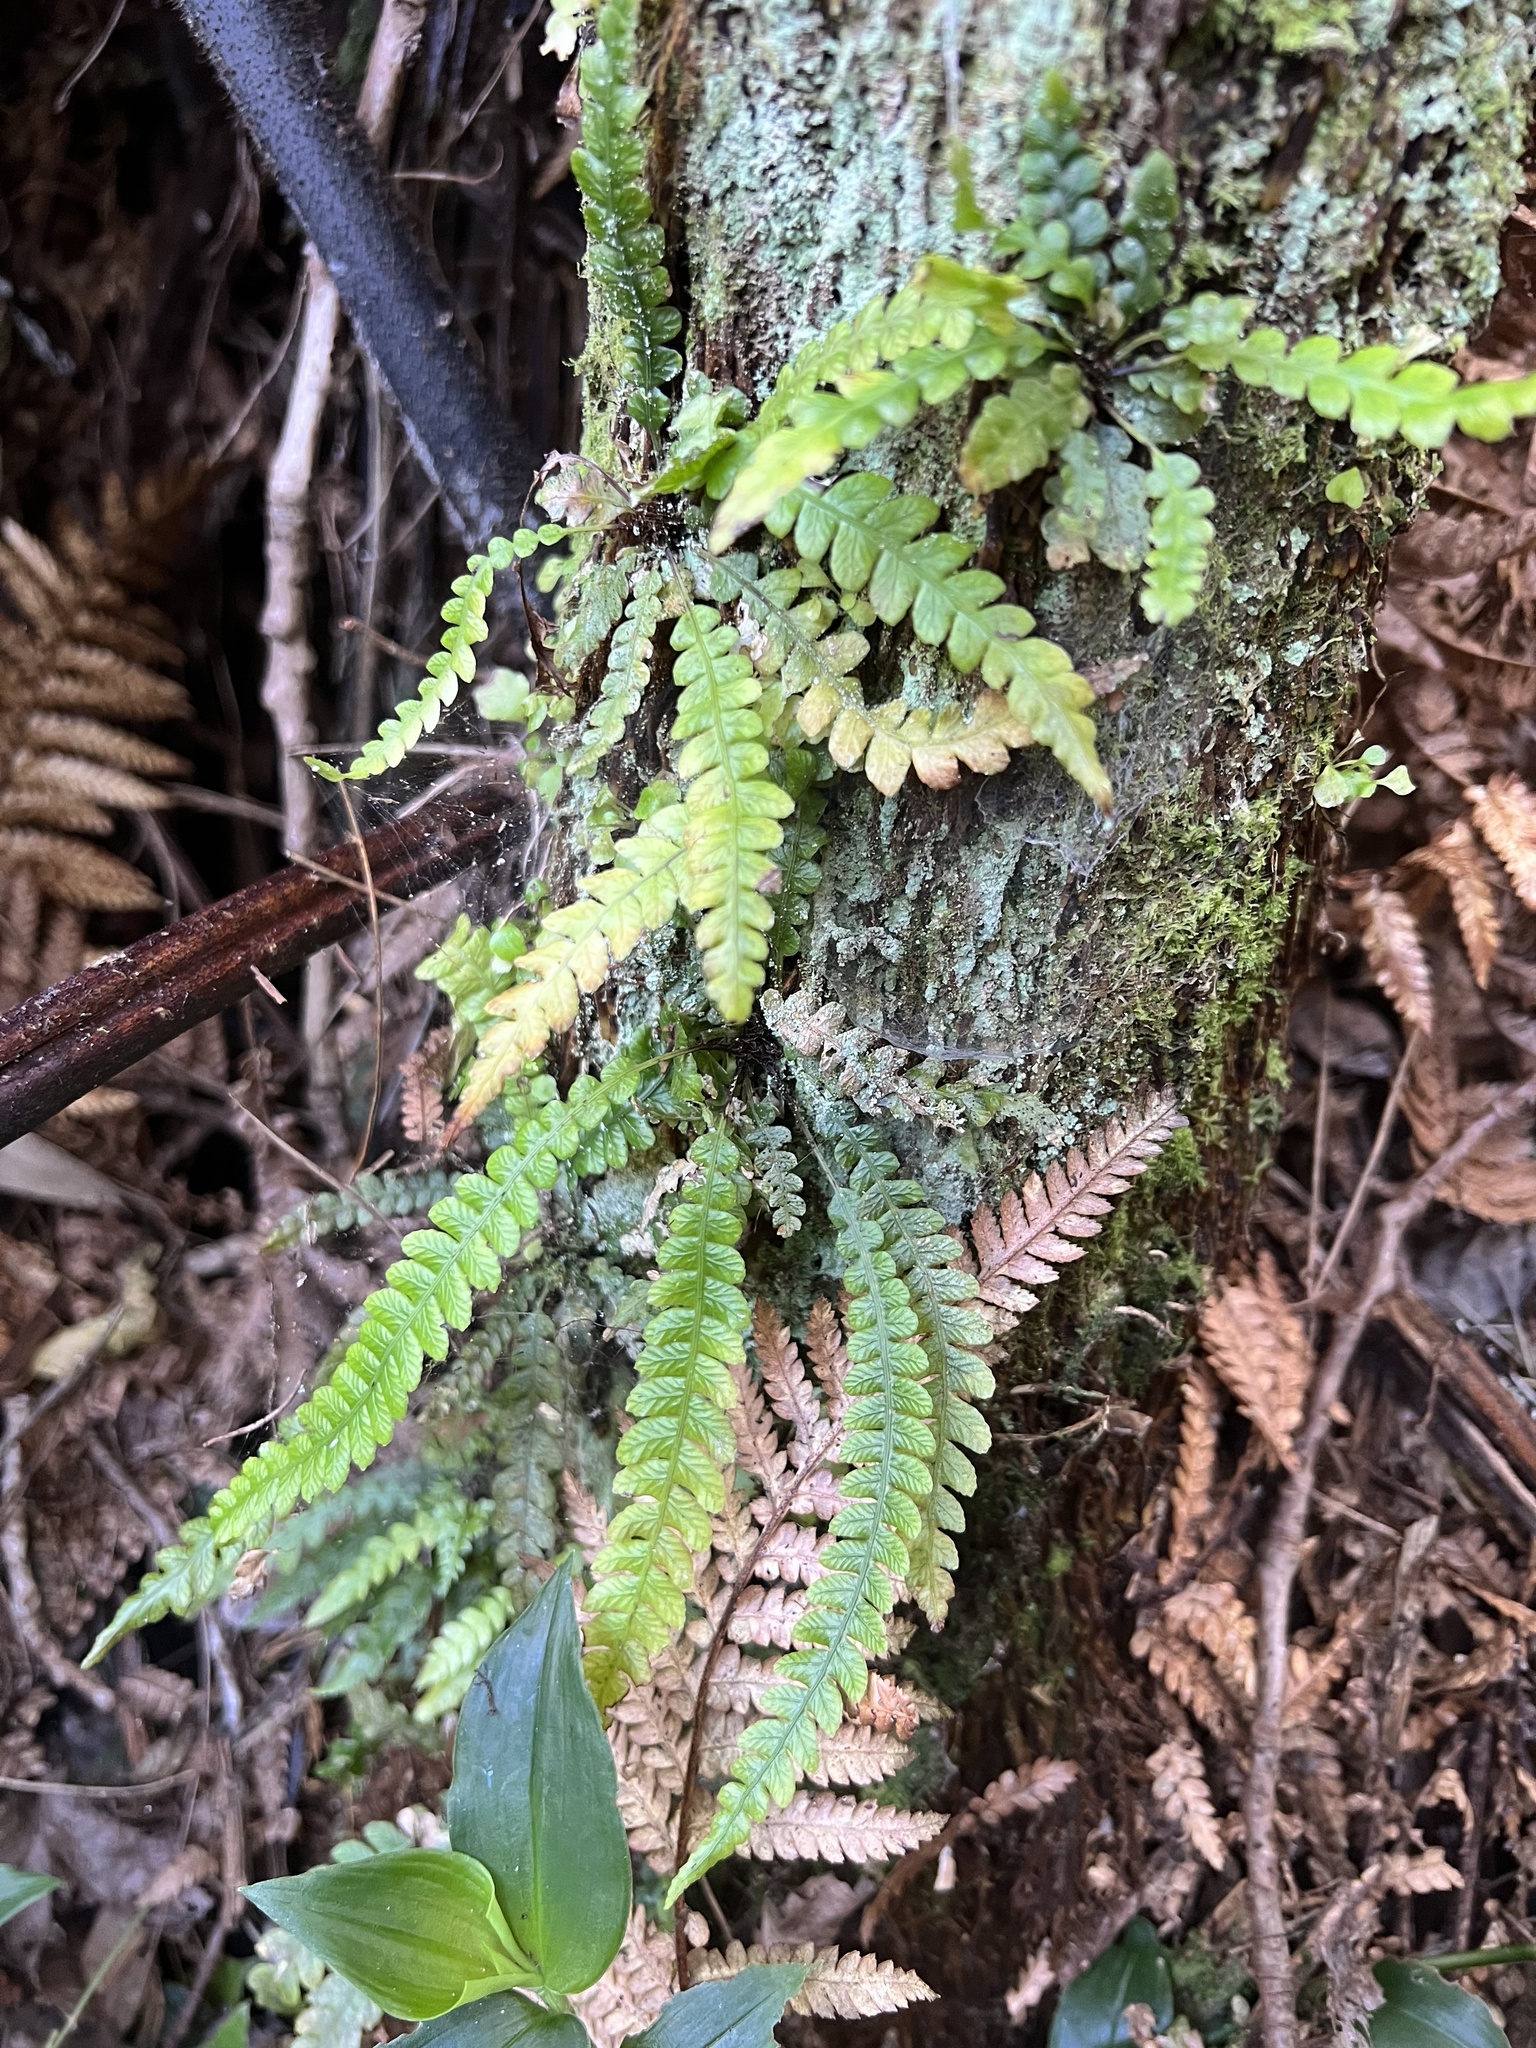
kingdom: Plantae
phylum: Tracheophyta
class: Polypodiopsida
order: Polypodiales
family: Blechnaceae
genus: Austroblechnum
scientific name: Austroblechnum membranaceum
